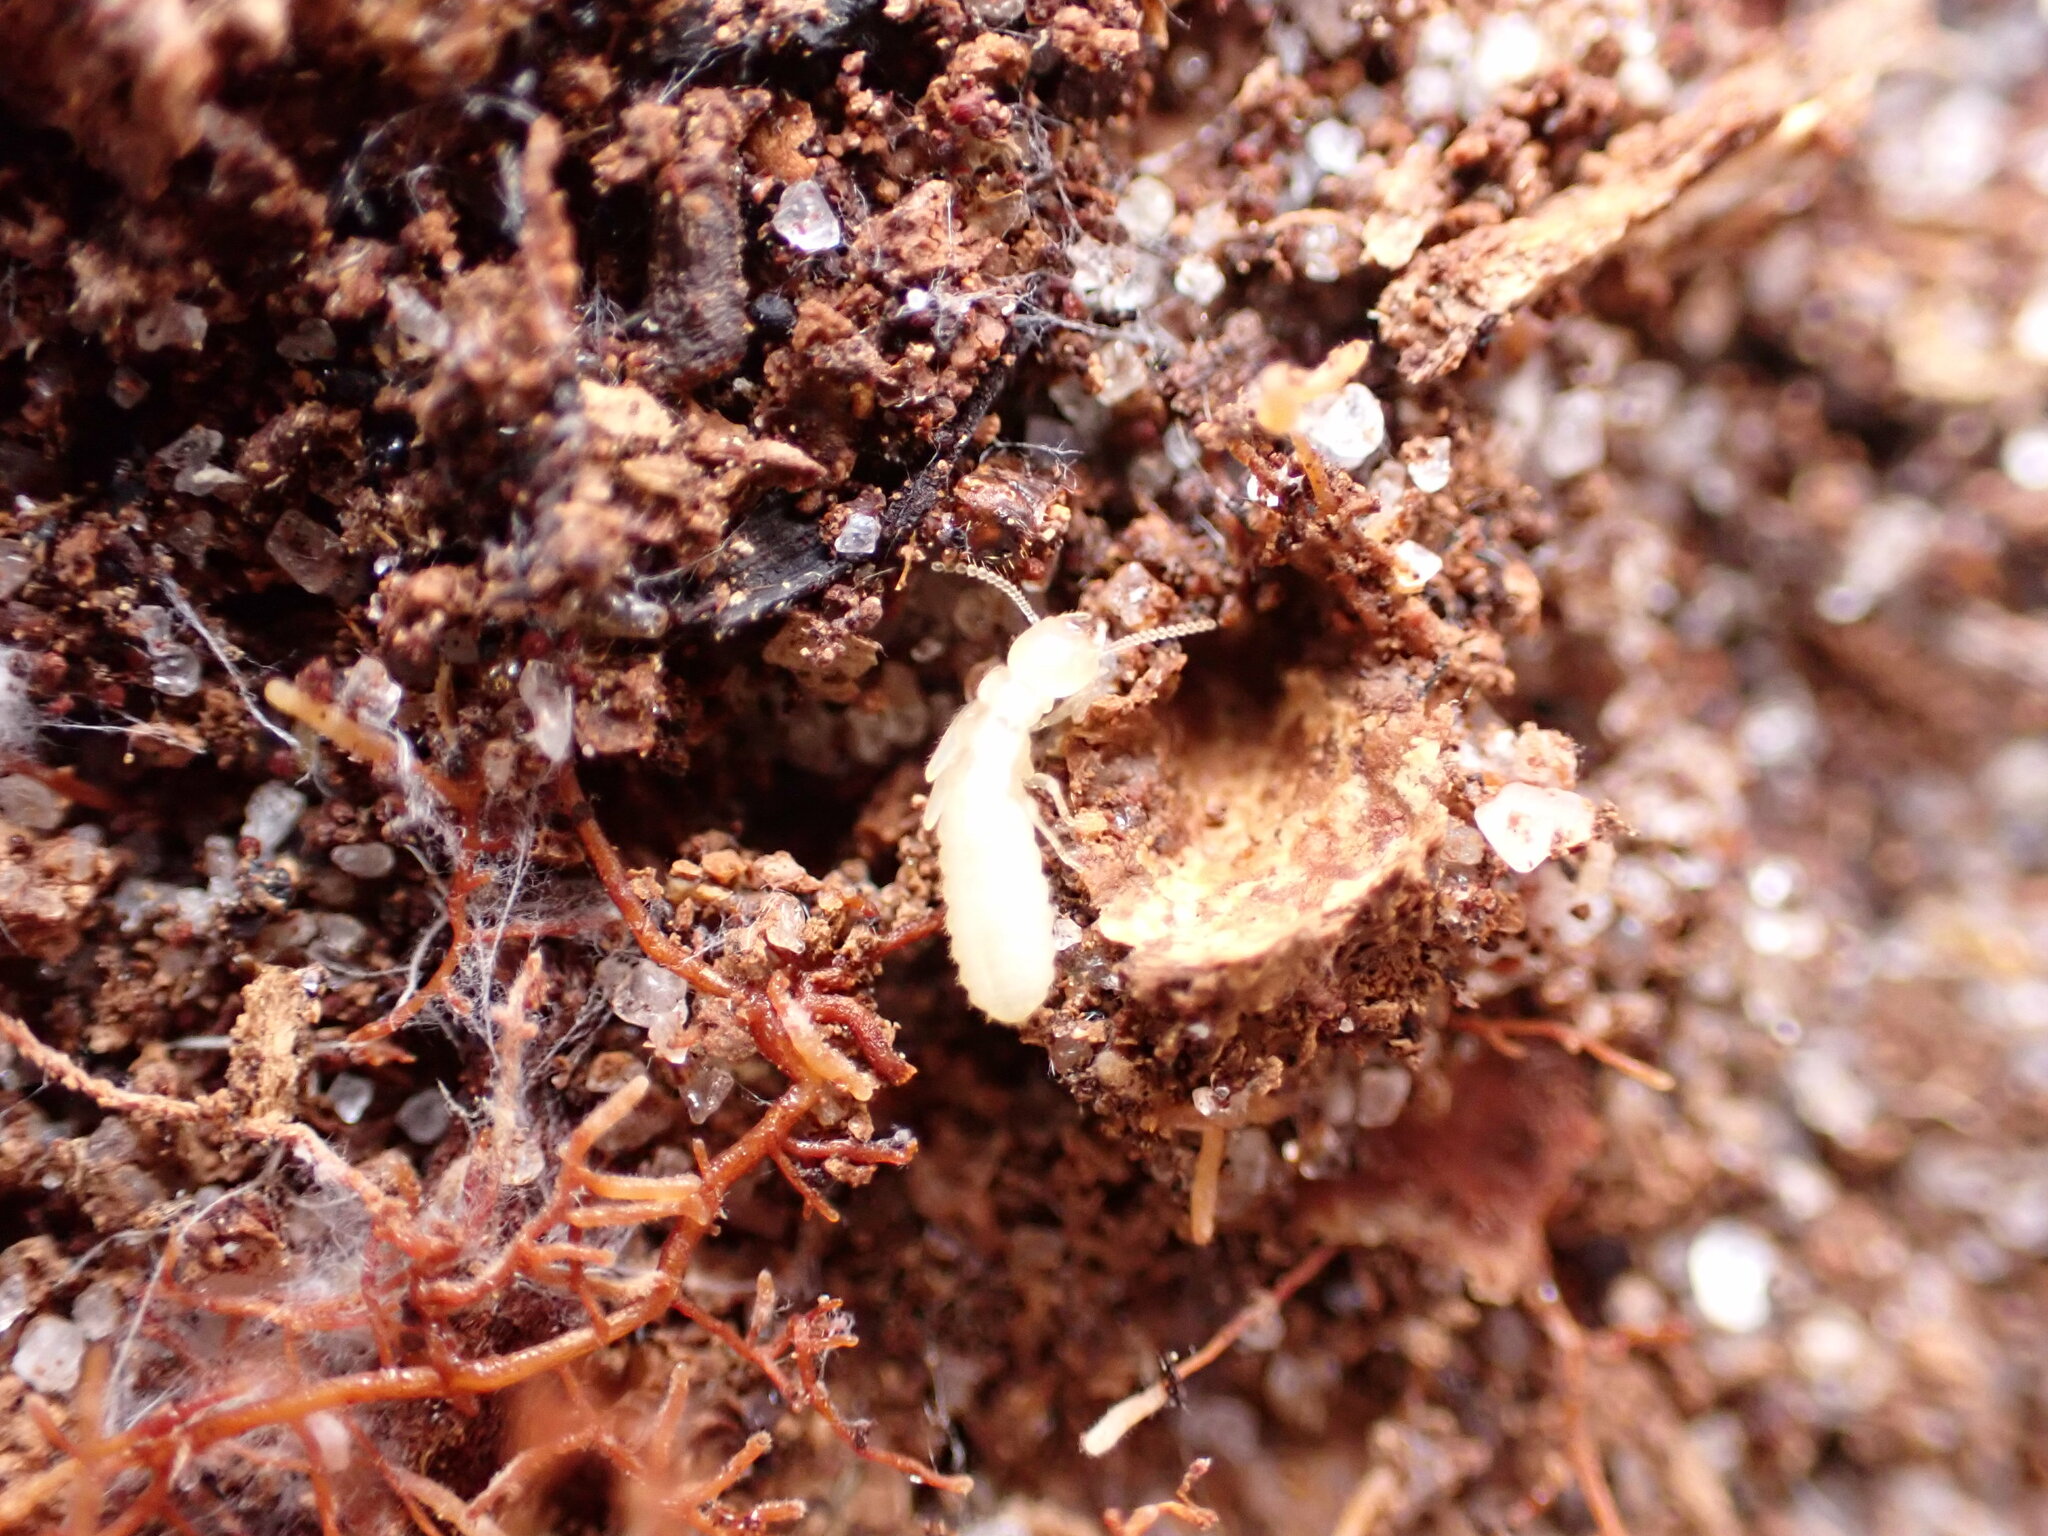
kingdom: Animalia
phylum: Arthropoda
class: Insecta
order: Blattodea
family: Rhinotermitidae
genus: Reticulitermes
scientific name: Reticulitermes flavipes
